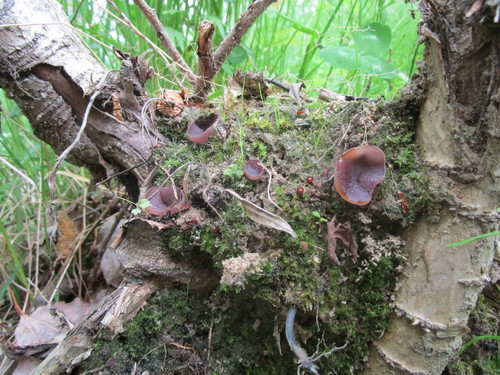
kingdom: Fungi
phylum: Ascomycota
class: Pezizomycetes
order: Pezizales
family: Pezizaceae
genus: Geoscypha
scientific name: Geoscypha
